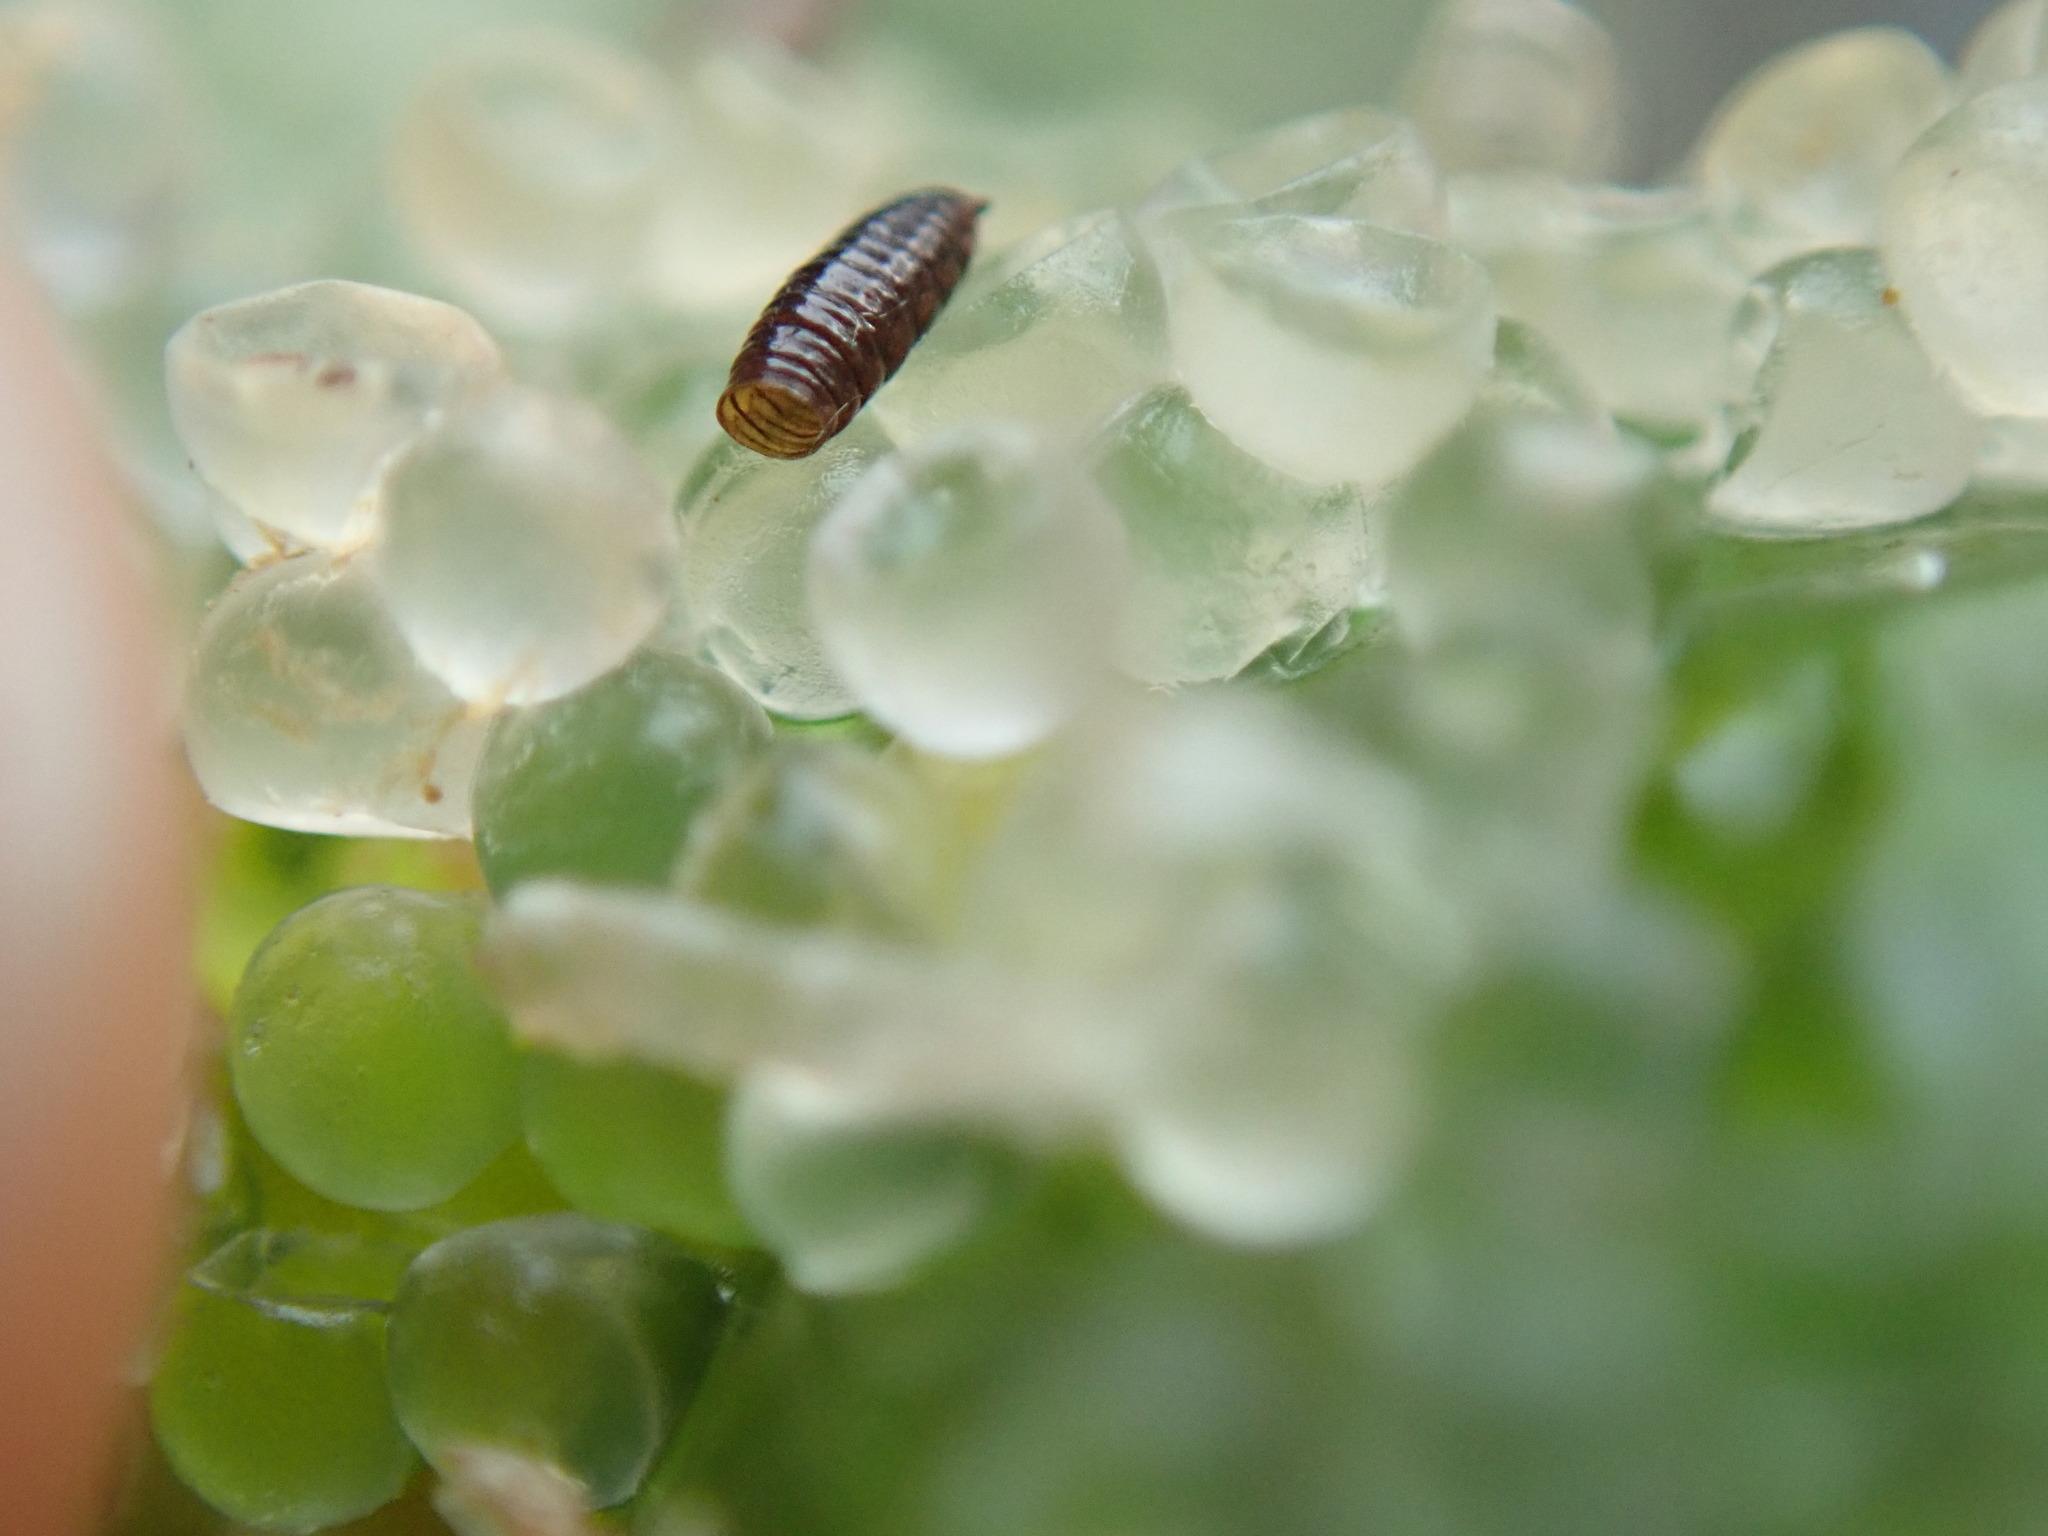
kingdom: Animalia
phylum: Chordata
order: Clupeiformes
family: Clupeidae
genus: Clupea
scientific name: Clupea pallasii
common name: Pacific herring
